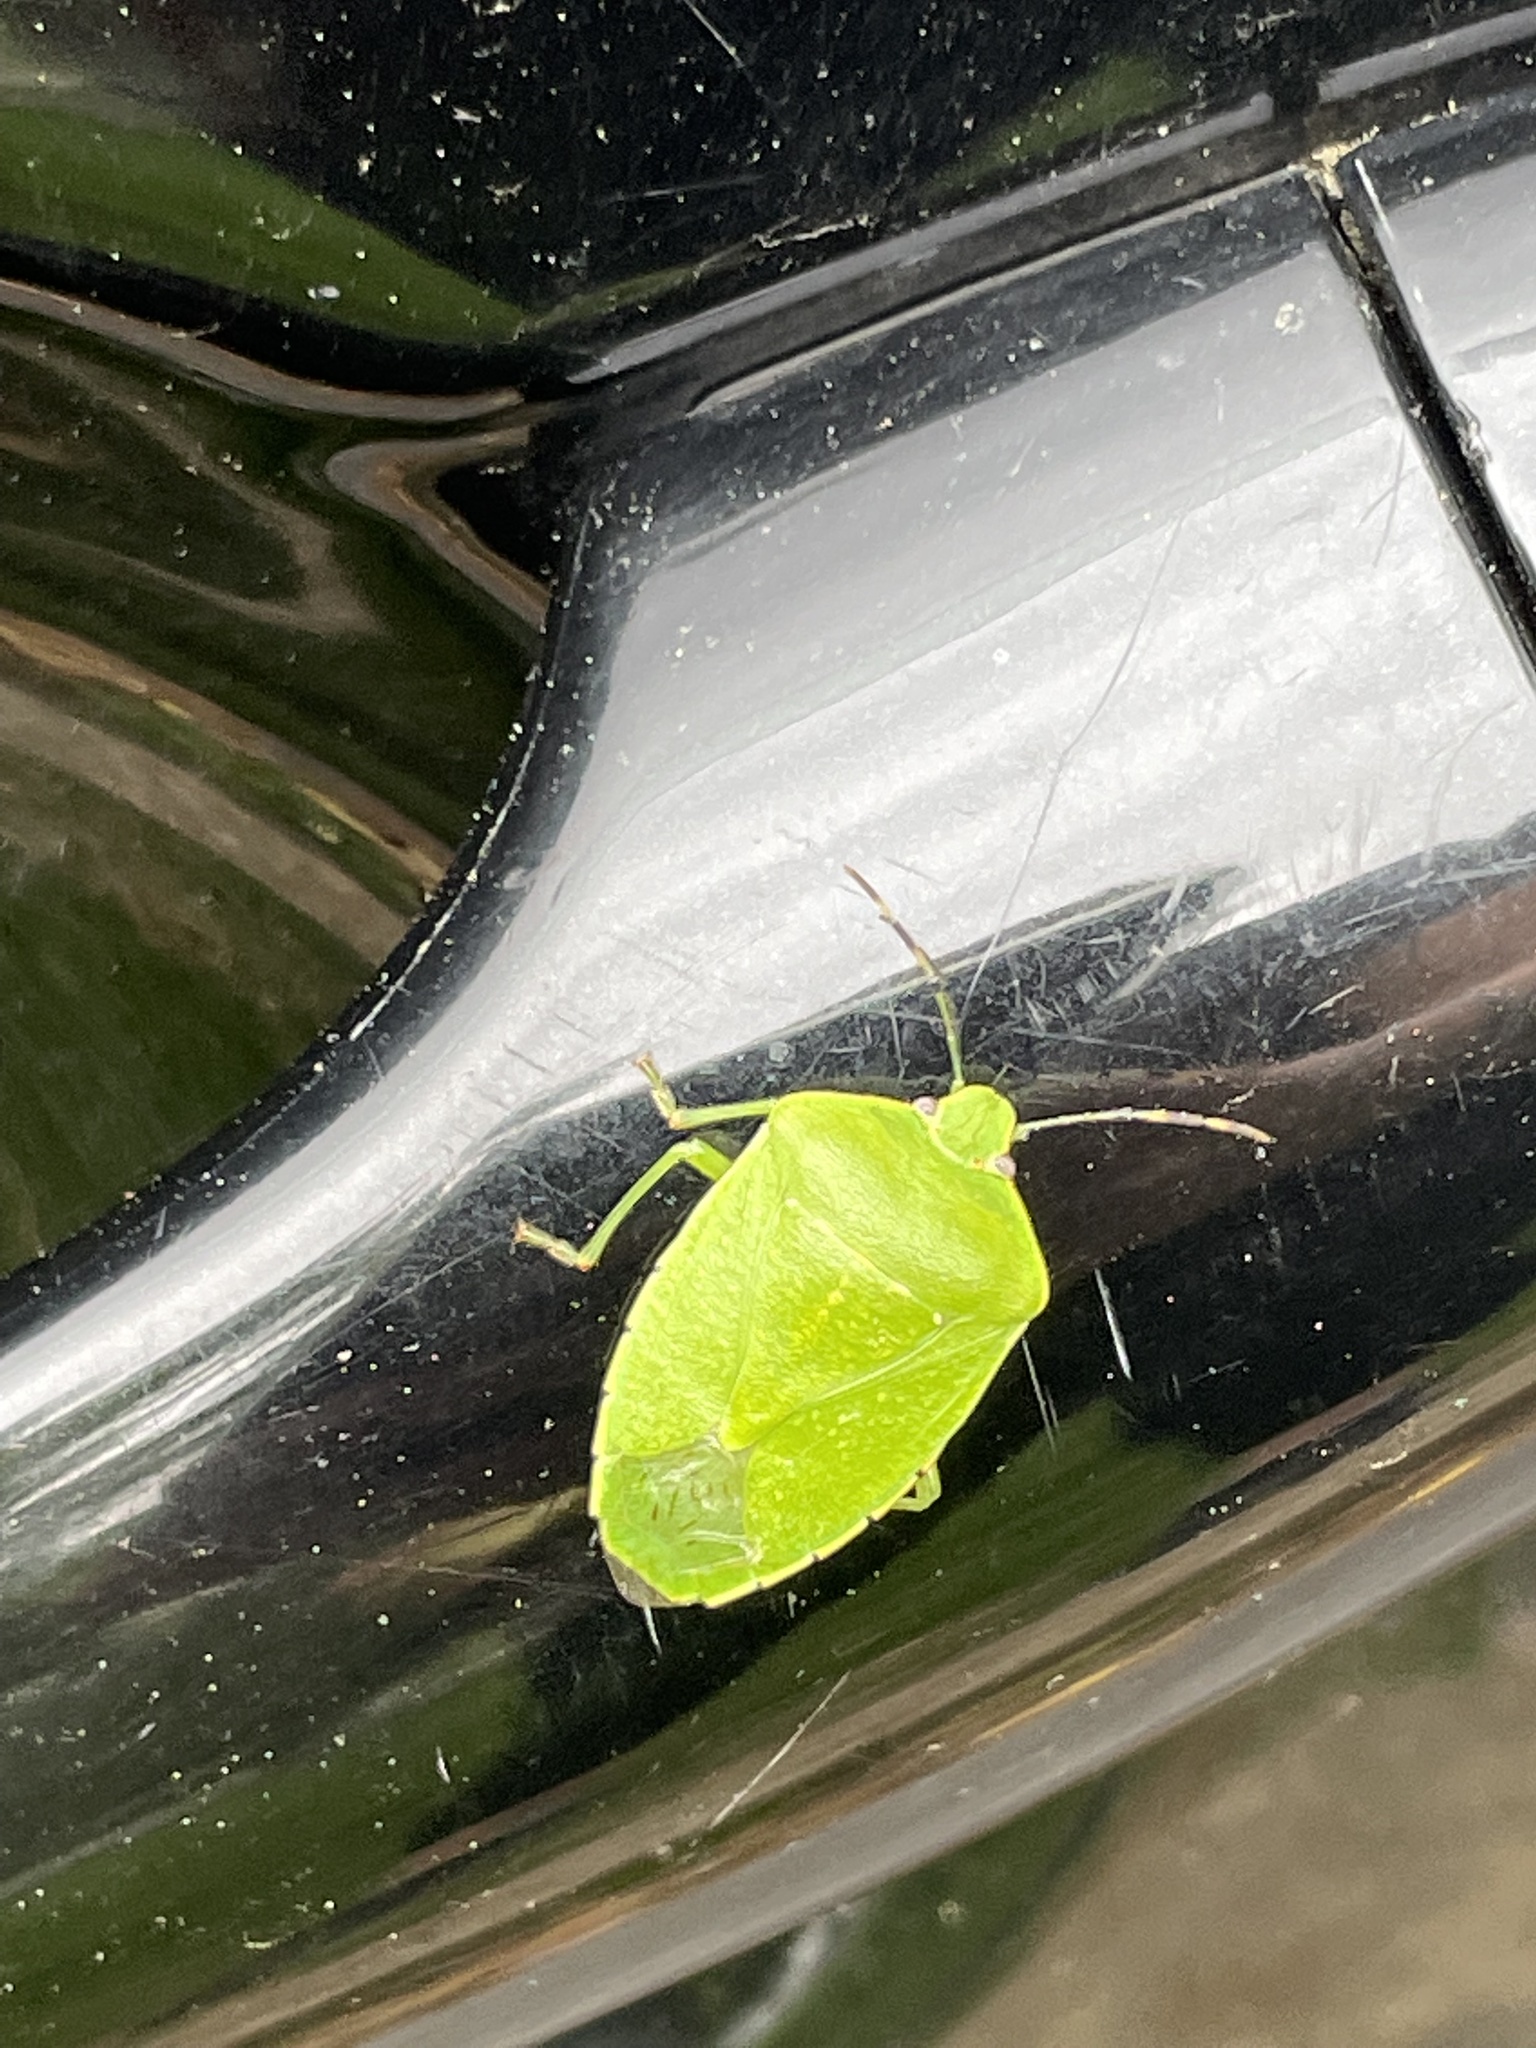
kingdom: Animalia
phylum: Arthropoda
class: Insecta
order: Hemiptera
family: Pentatomidae
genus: Chinavia
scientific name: Chinavia hilaris
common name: Green stink bug
